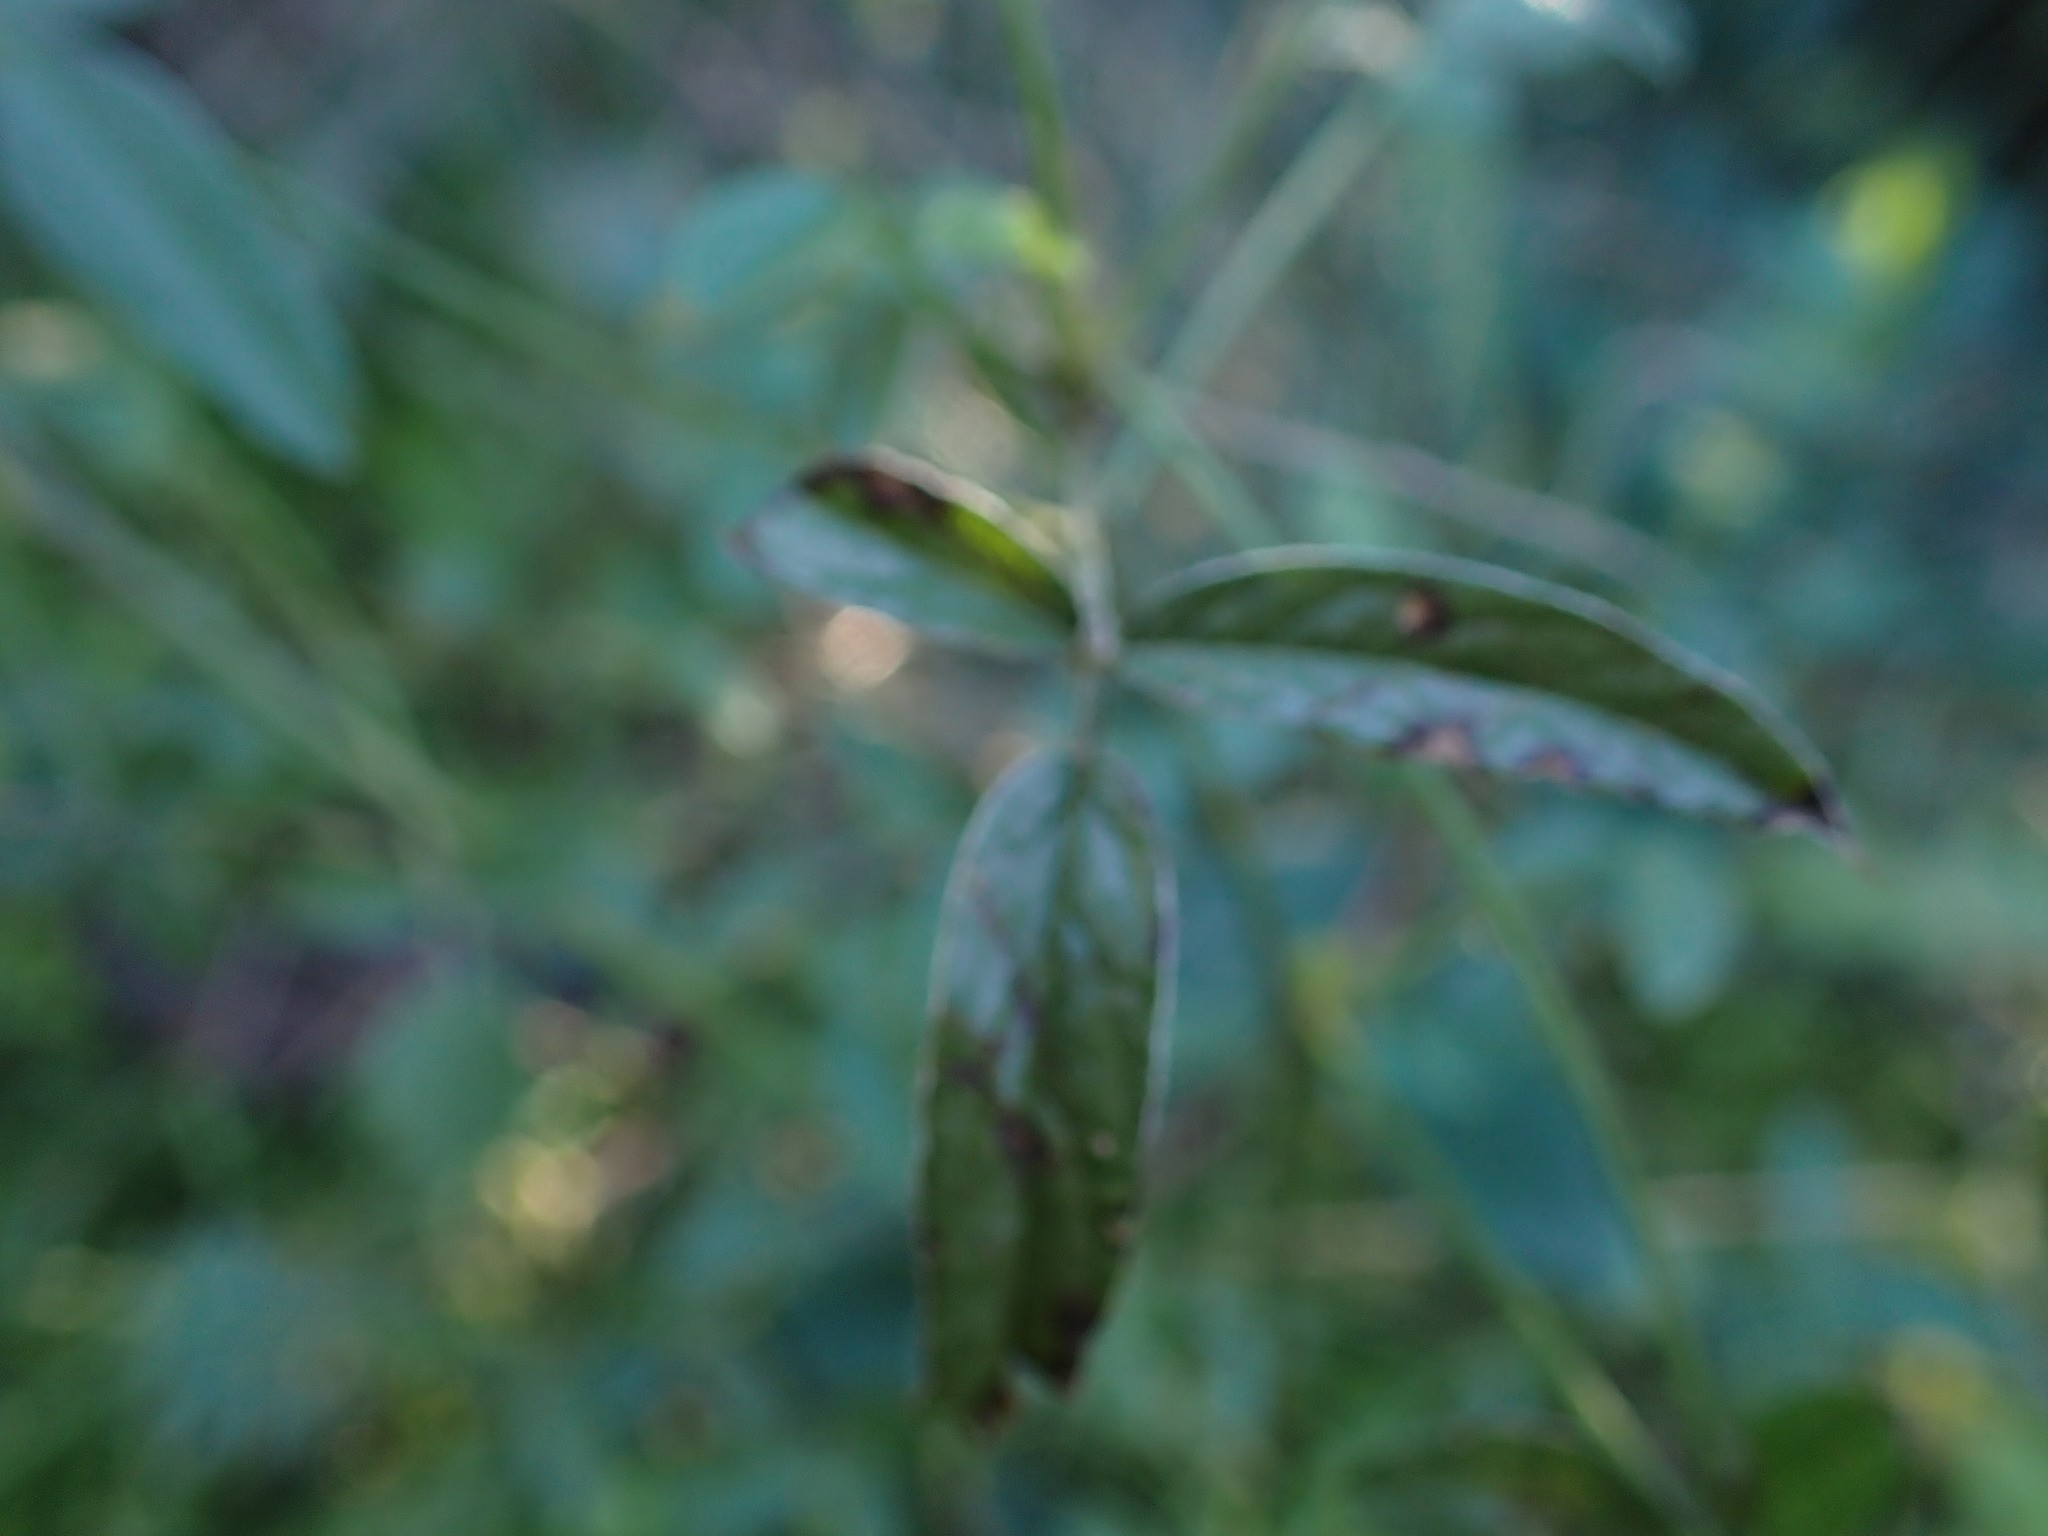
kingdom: Plantae
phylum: Tracheophyta
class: Magnoliopsida
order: Fabales
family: Fabaceae
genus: Bituminaria
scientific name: Bituminaria bituminosa
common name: Arabian pea
